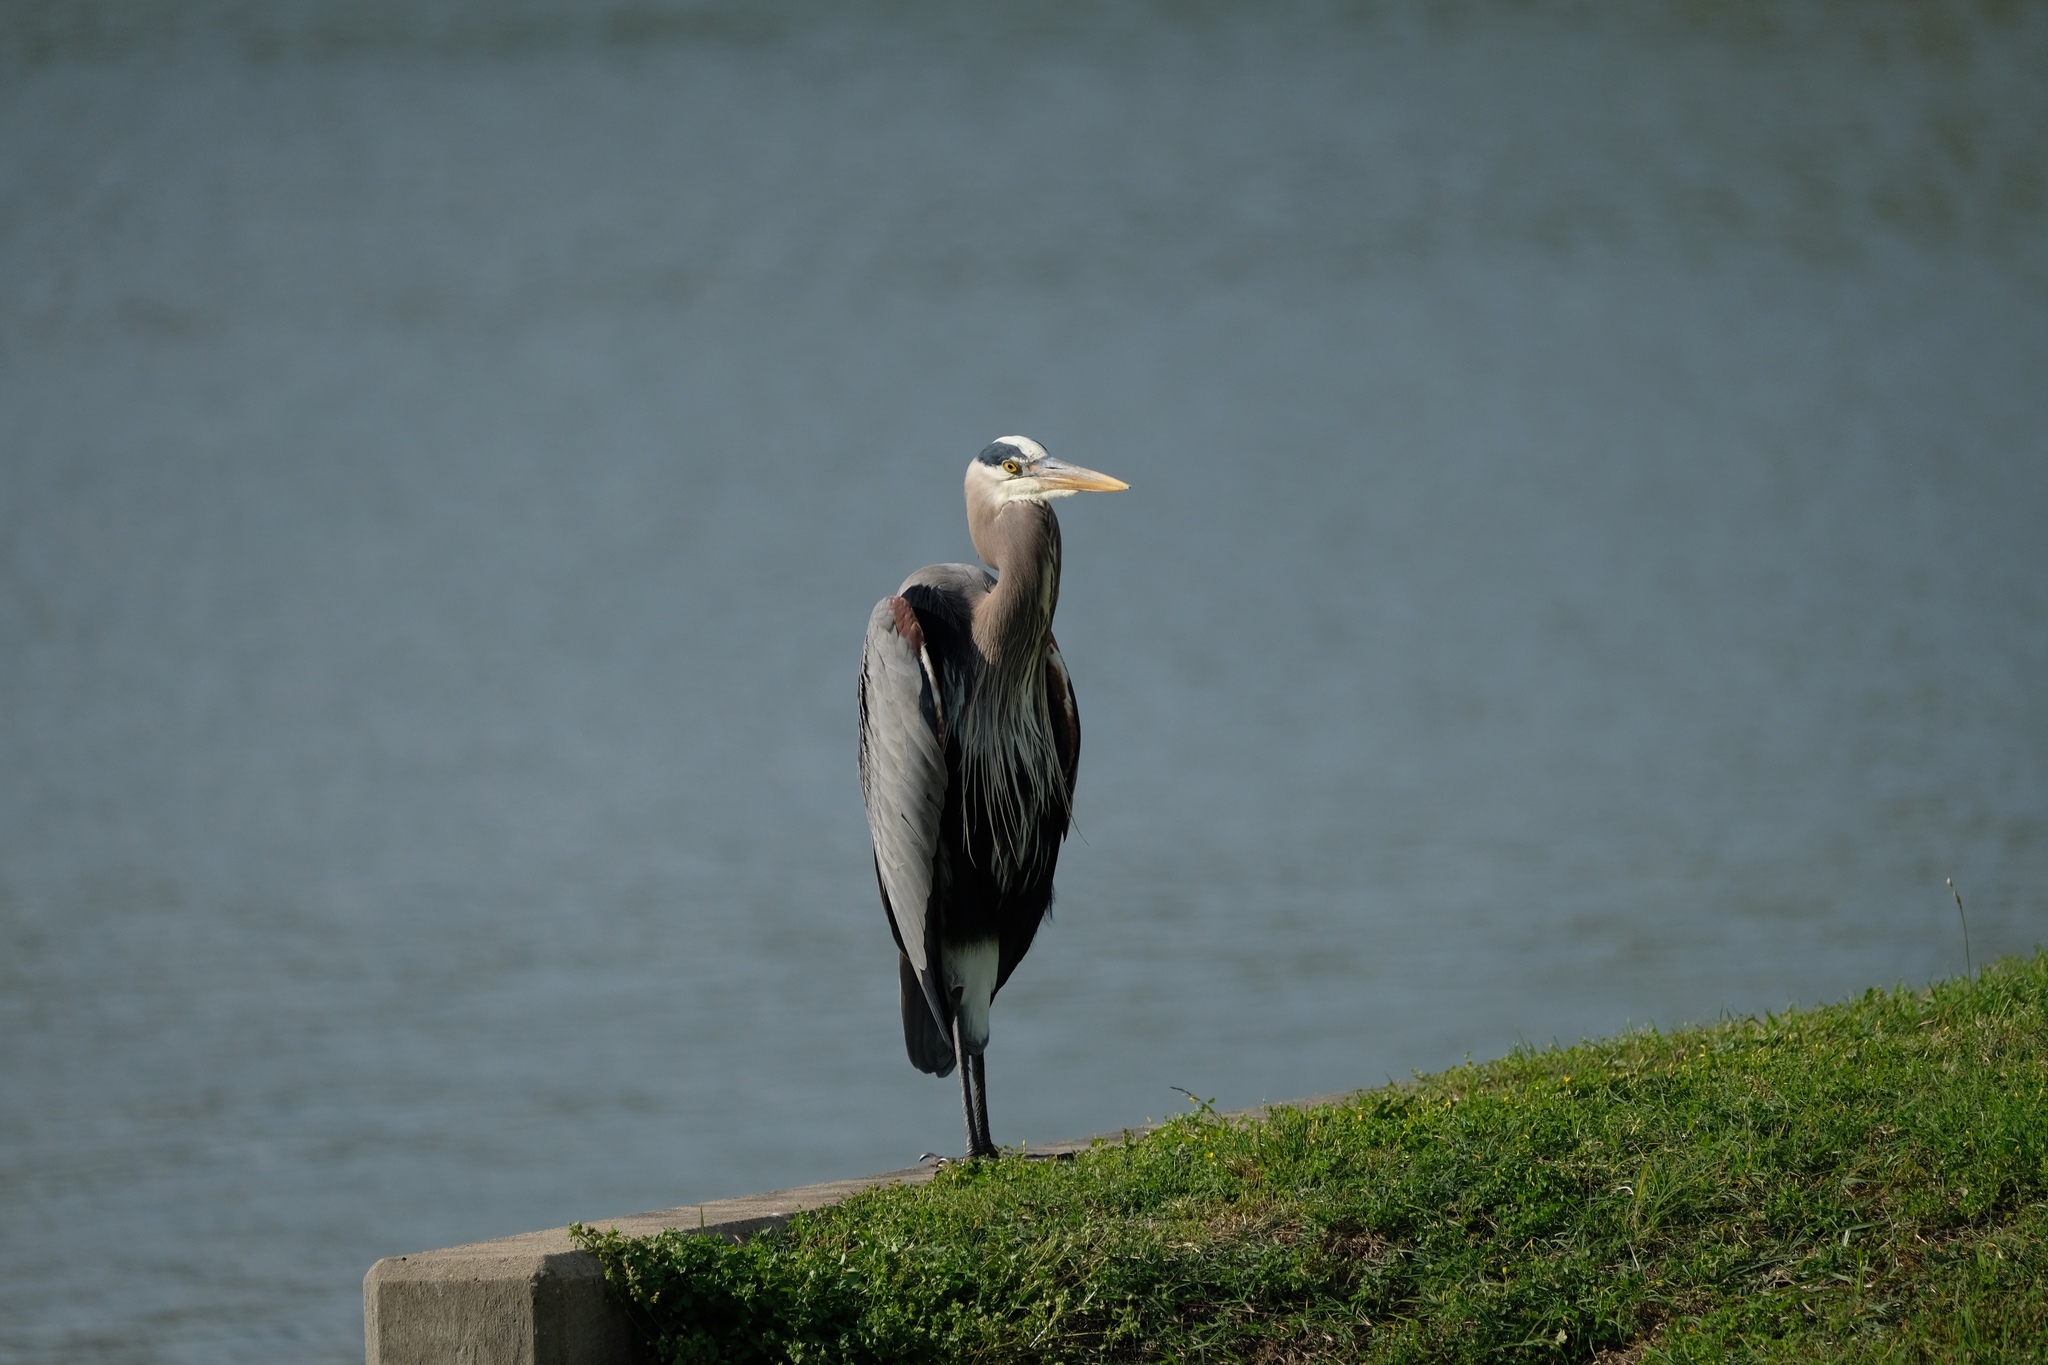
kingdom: Animalia
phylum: Chordata
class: Aves
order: Pelecaniformes
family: Ardeidae
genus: Ardea
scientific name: Ardea herodias
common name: Great blue heron
